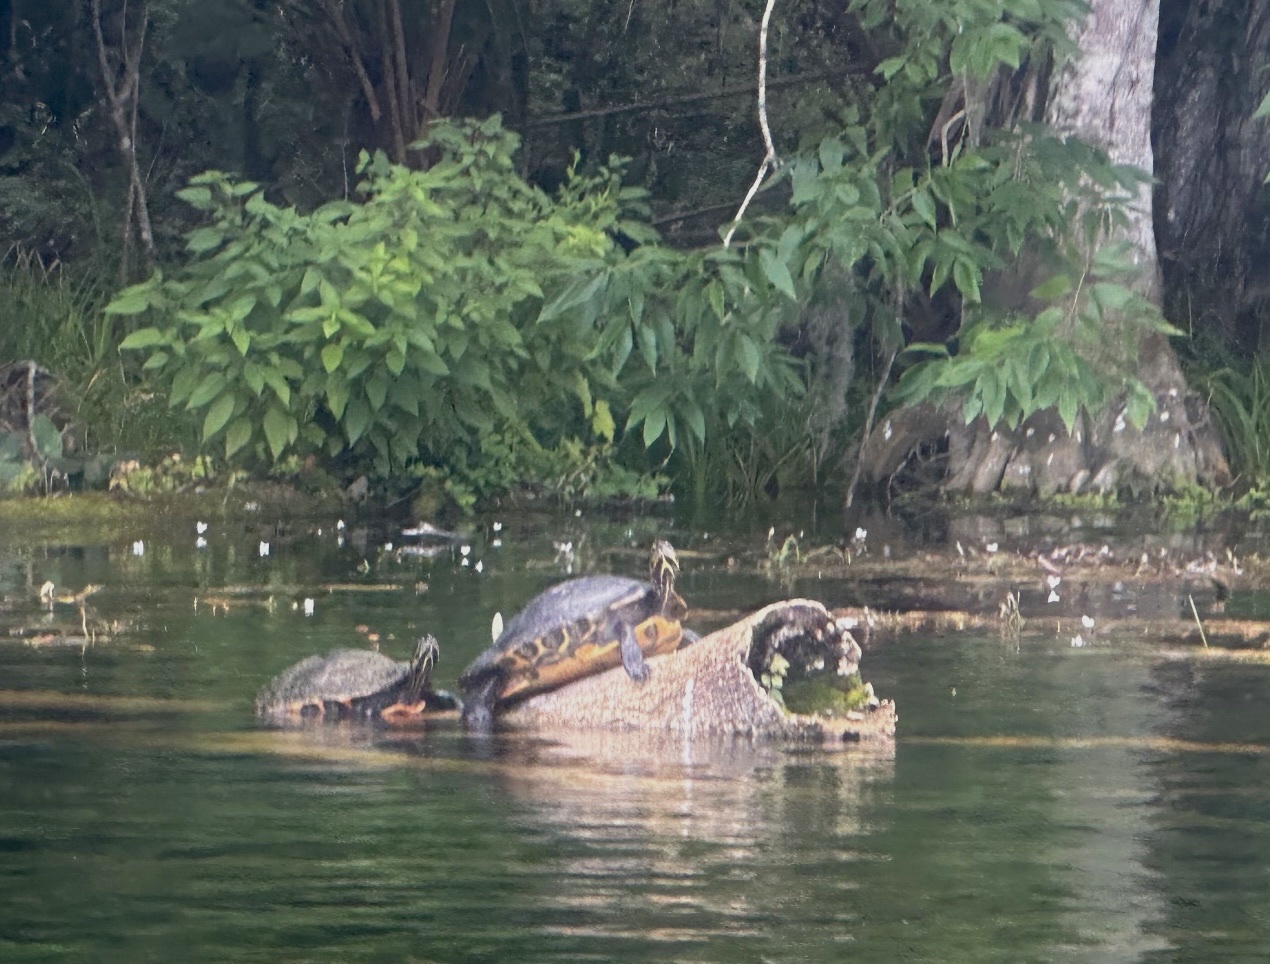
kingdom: Animalia
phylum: Chordata
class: Testudines
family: Emydidae
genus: Pseudemys
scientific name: Pseudemys concinna
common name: Eastern river cooter
